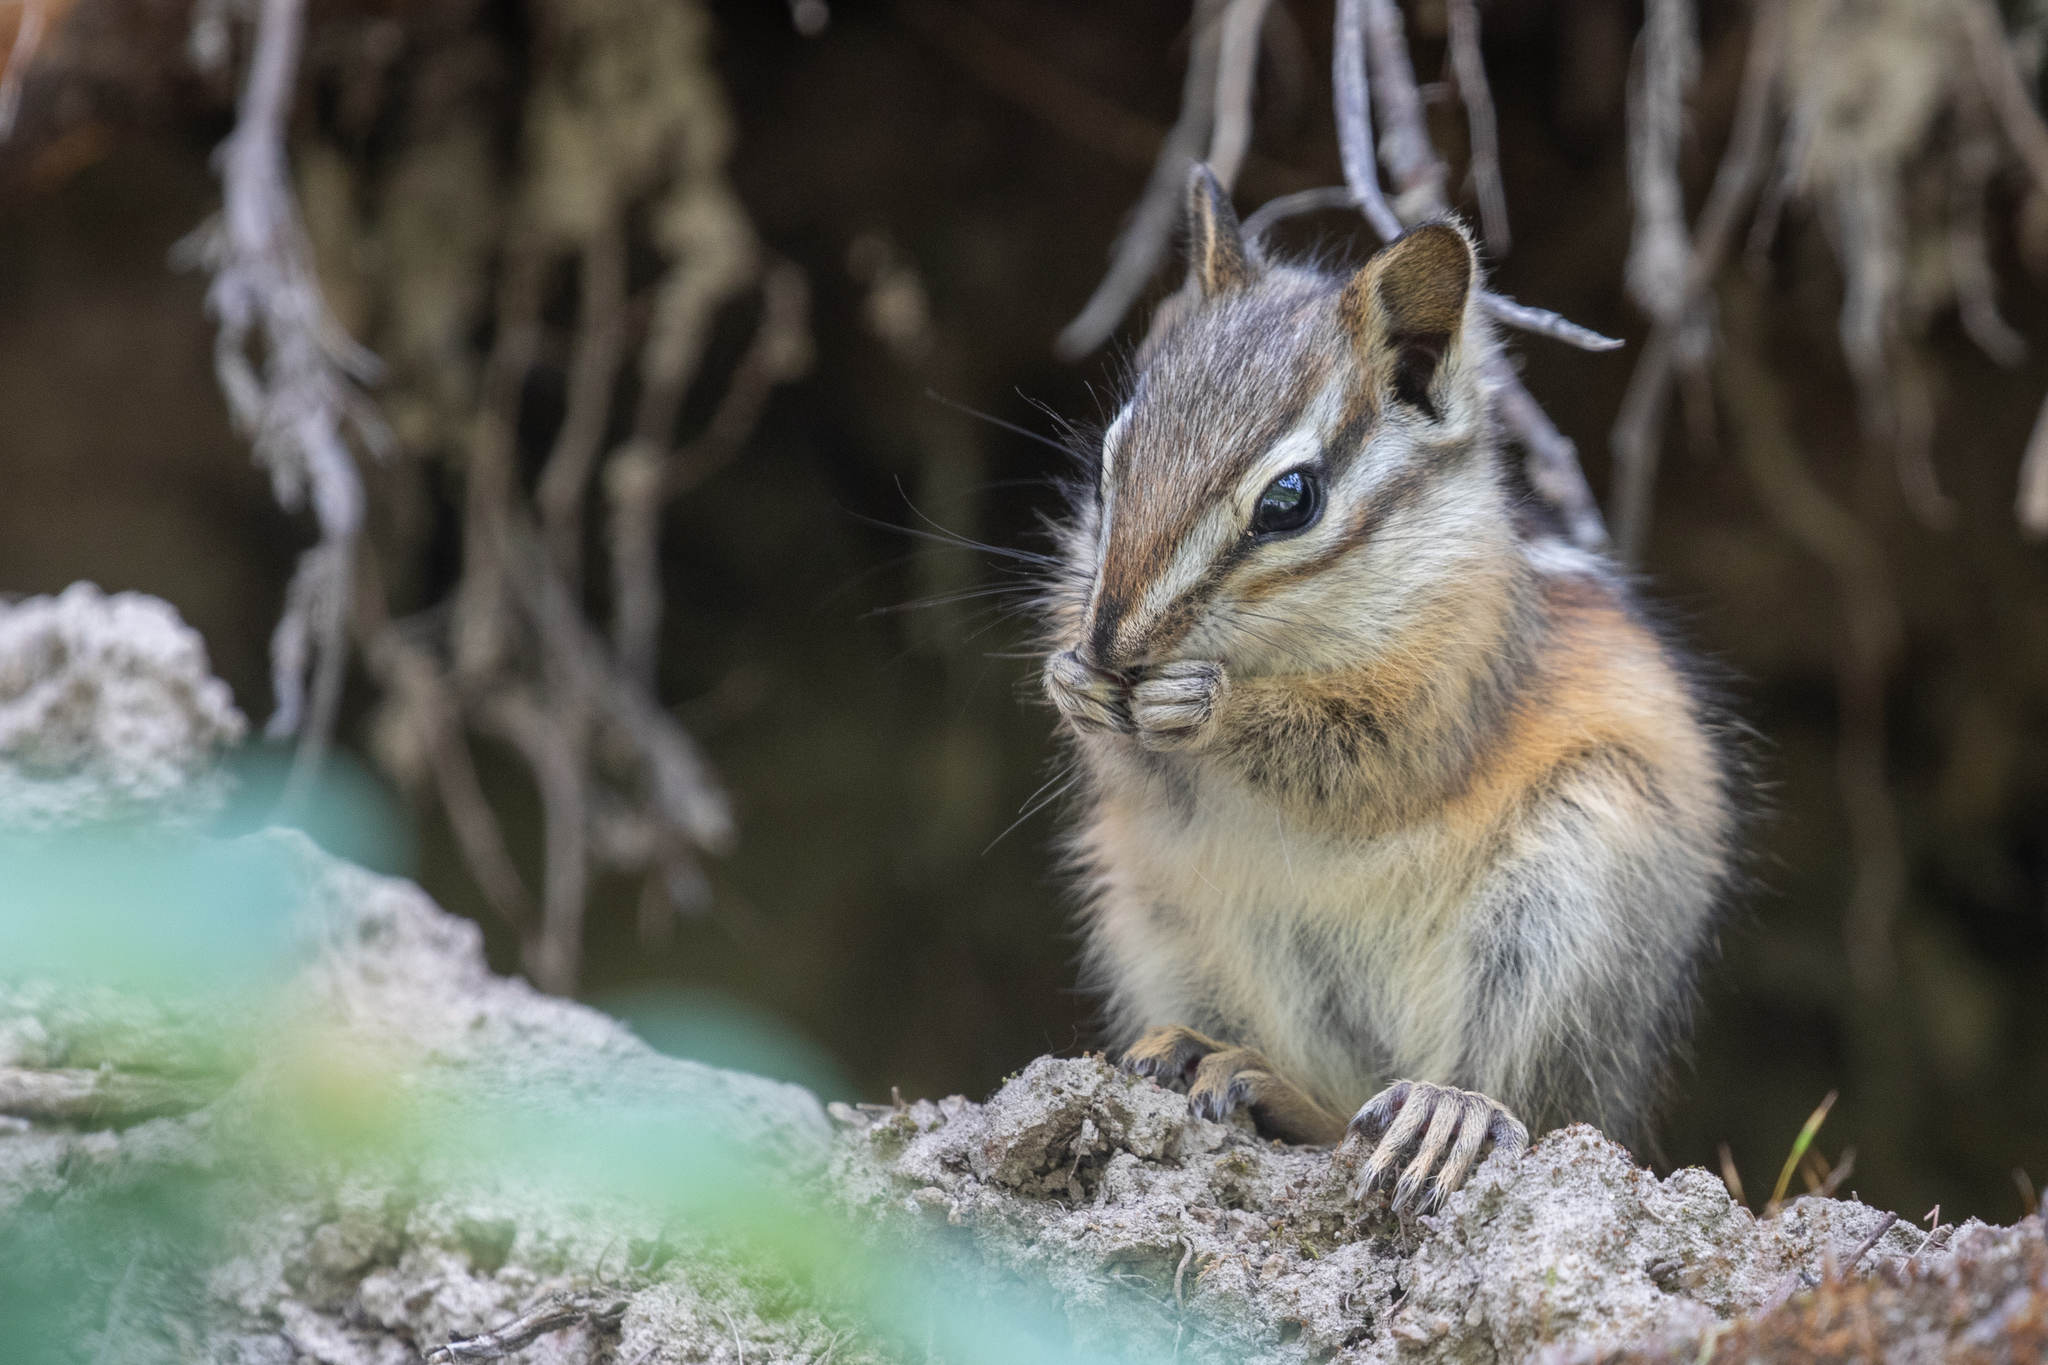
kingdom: Animalia
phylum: Chordata
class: Mammalia
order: Rodentia
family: Sciuridae
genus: Tamias
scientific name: Tamias amoenus
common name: Yellow-pine chipmunk
